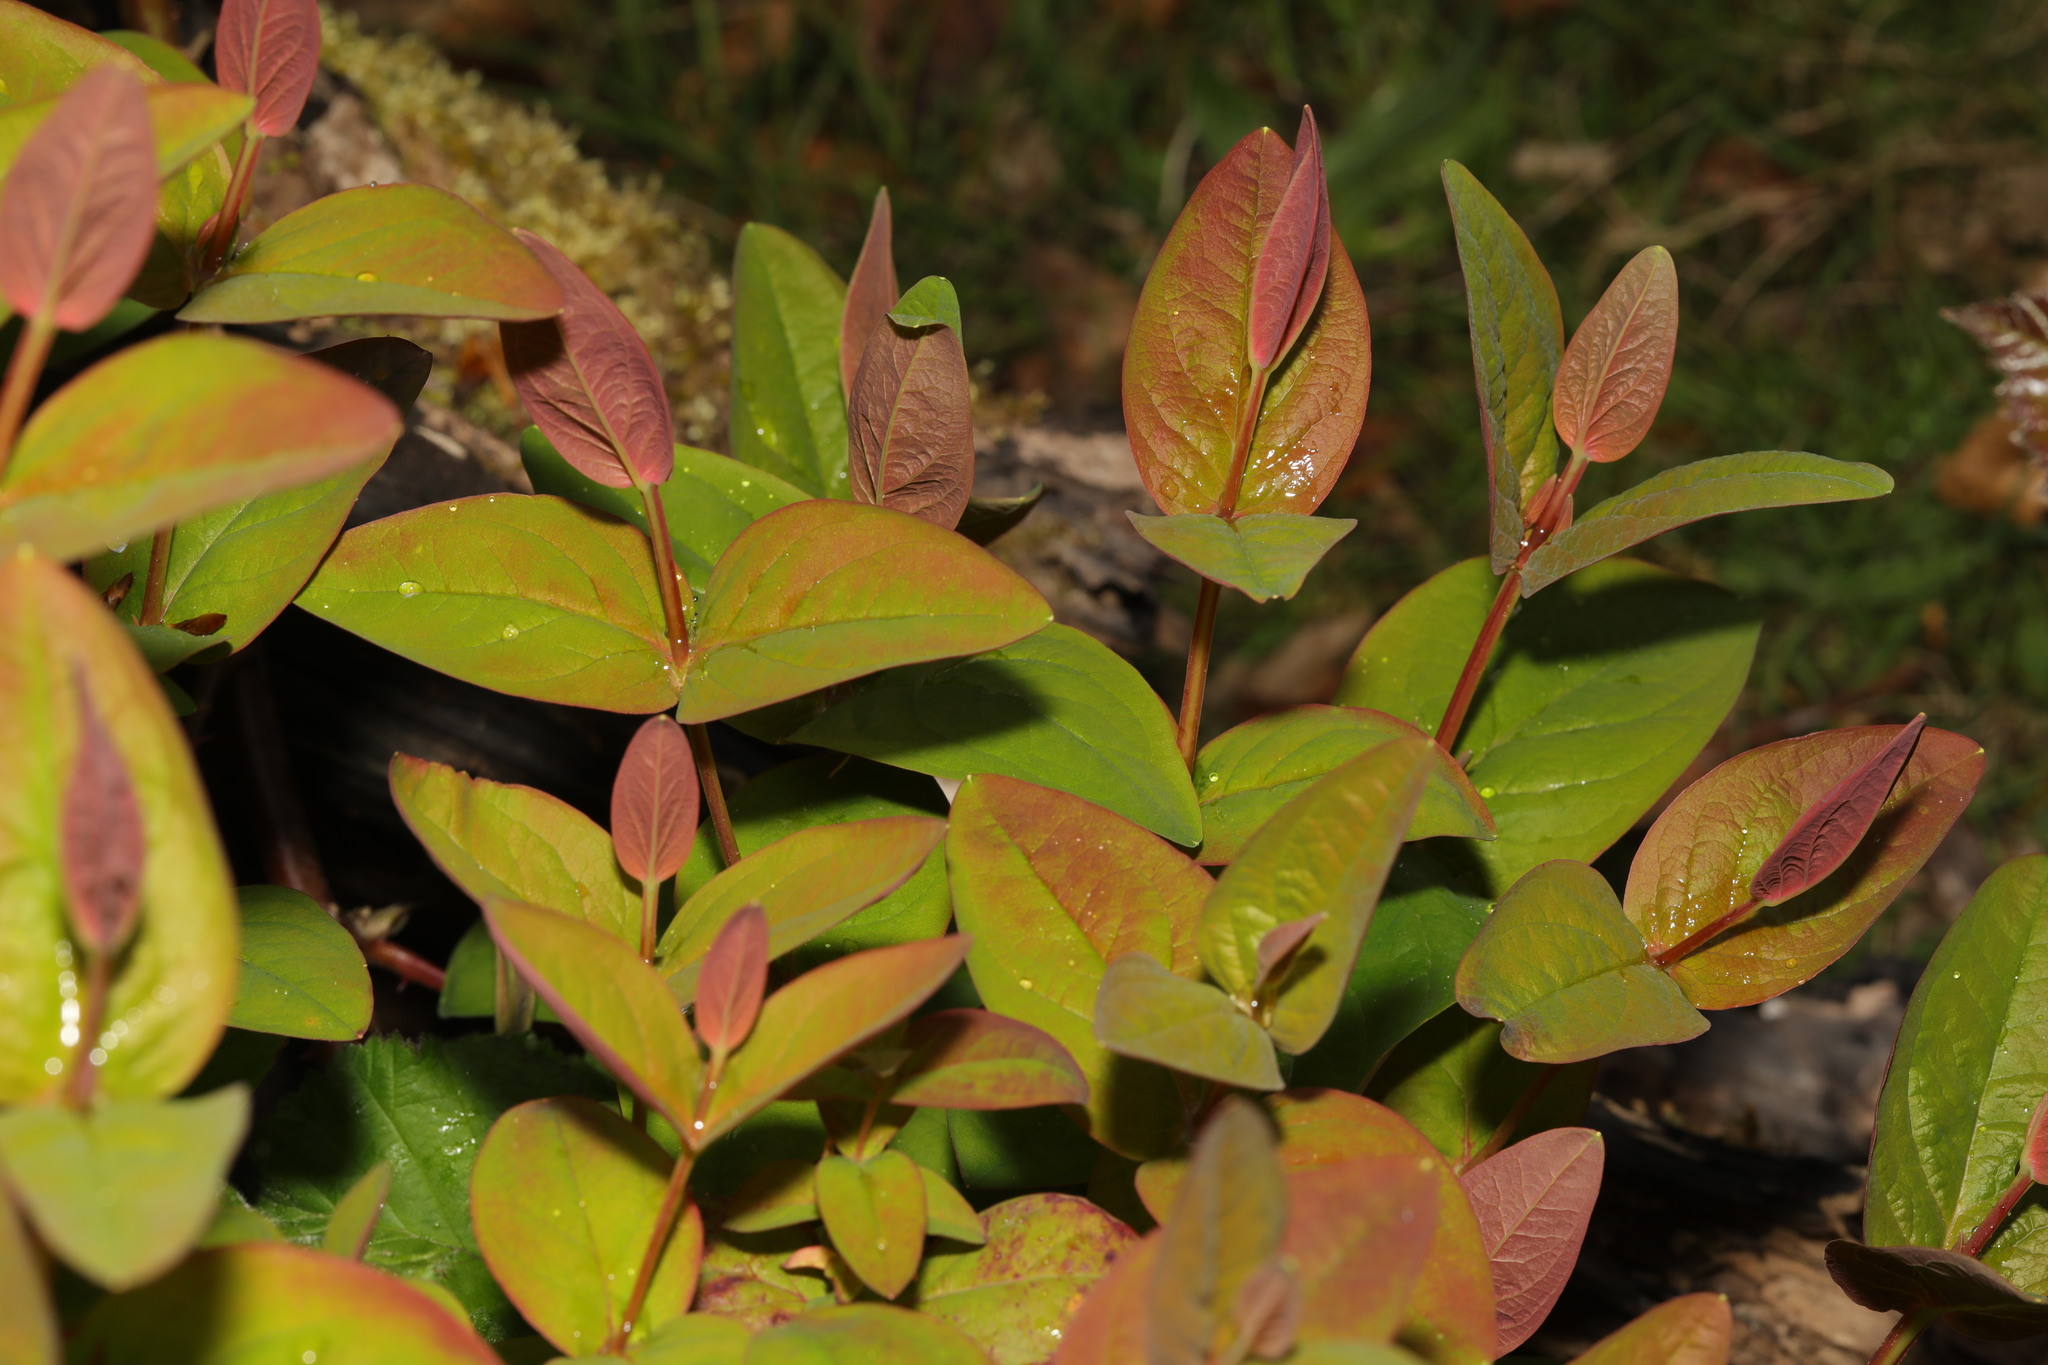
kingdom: Plantae
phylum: Tracheophyta
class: Magnoliopsida
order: Malpighiales
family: Hypericaceae
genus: Hypericum
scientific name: Hypericum androsaemum
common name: Sweet-amber
